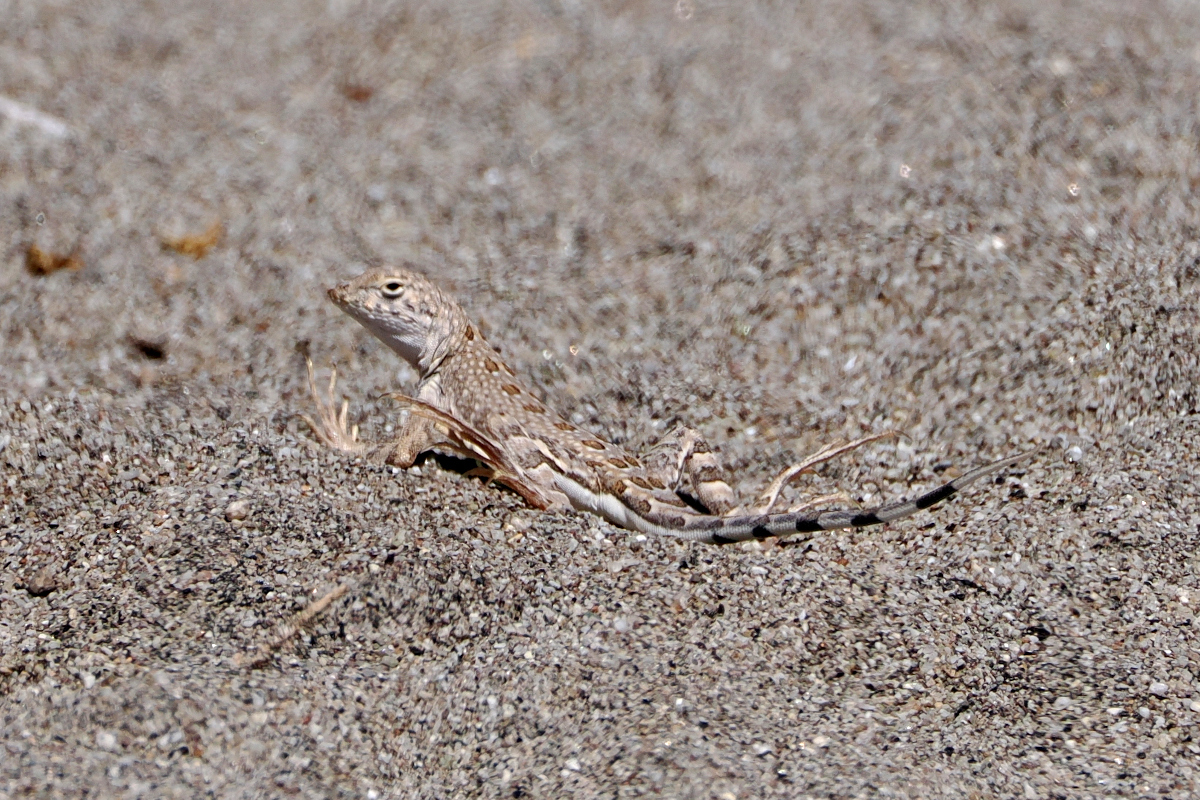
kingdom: Animalia
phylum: Chordata
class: Squamata
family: Phrynosomatidae
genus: Callisaurus
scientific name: Callisaurus draconoides
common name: Zebra-tailed lizard
